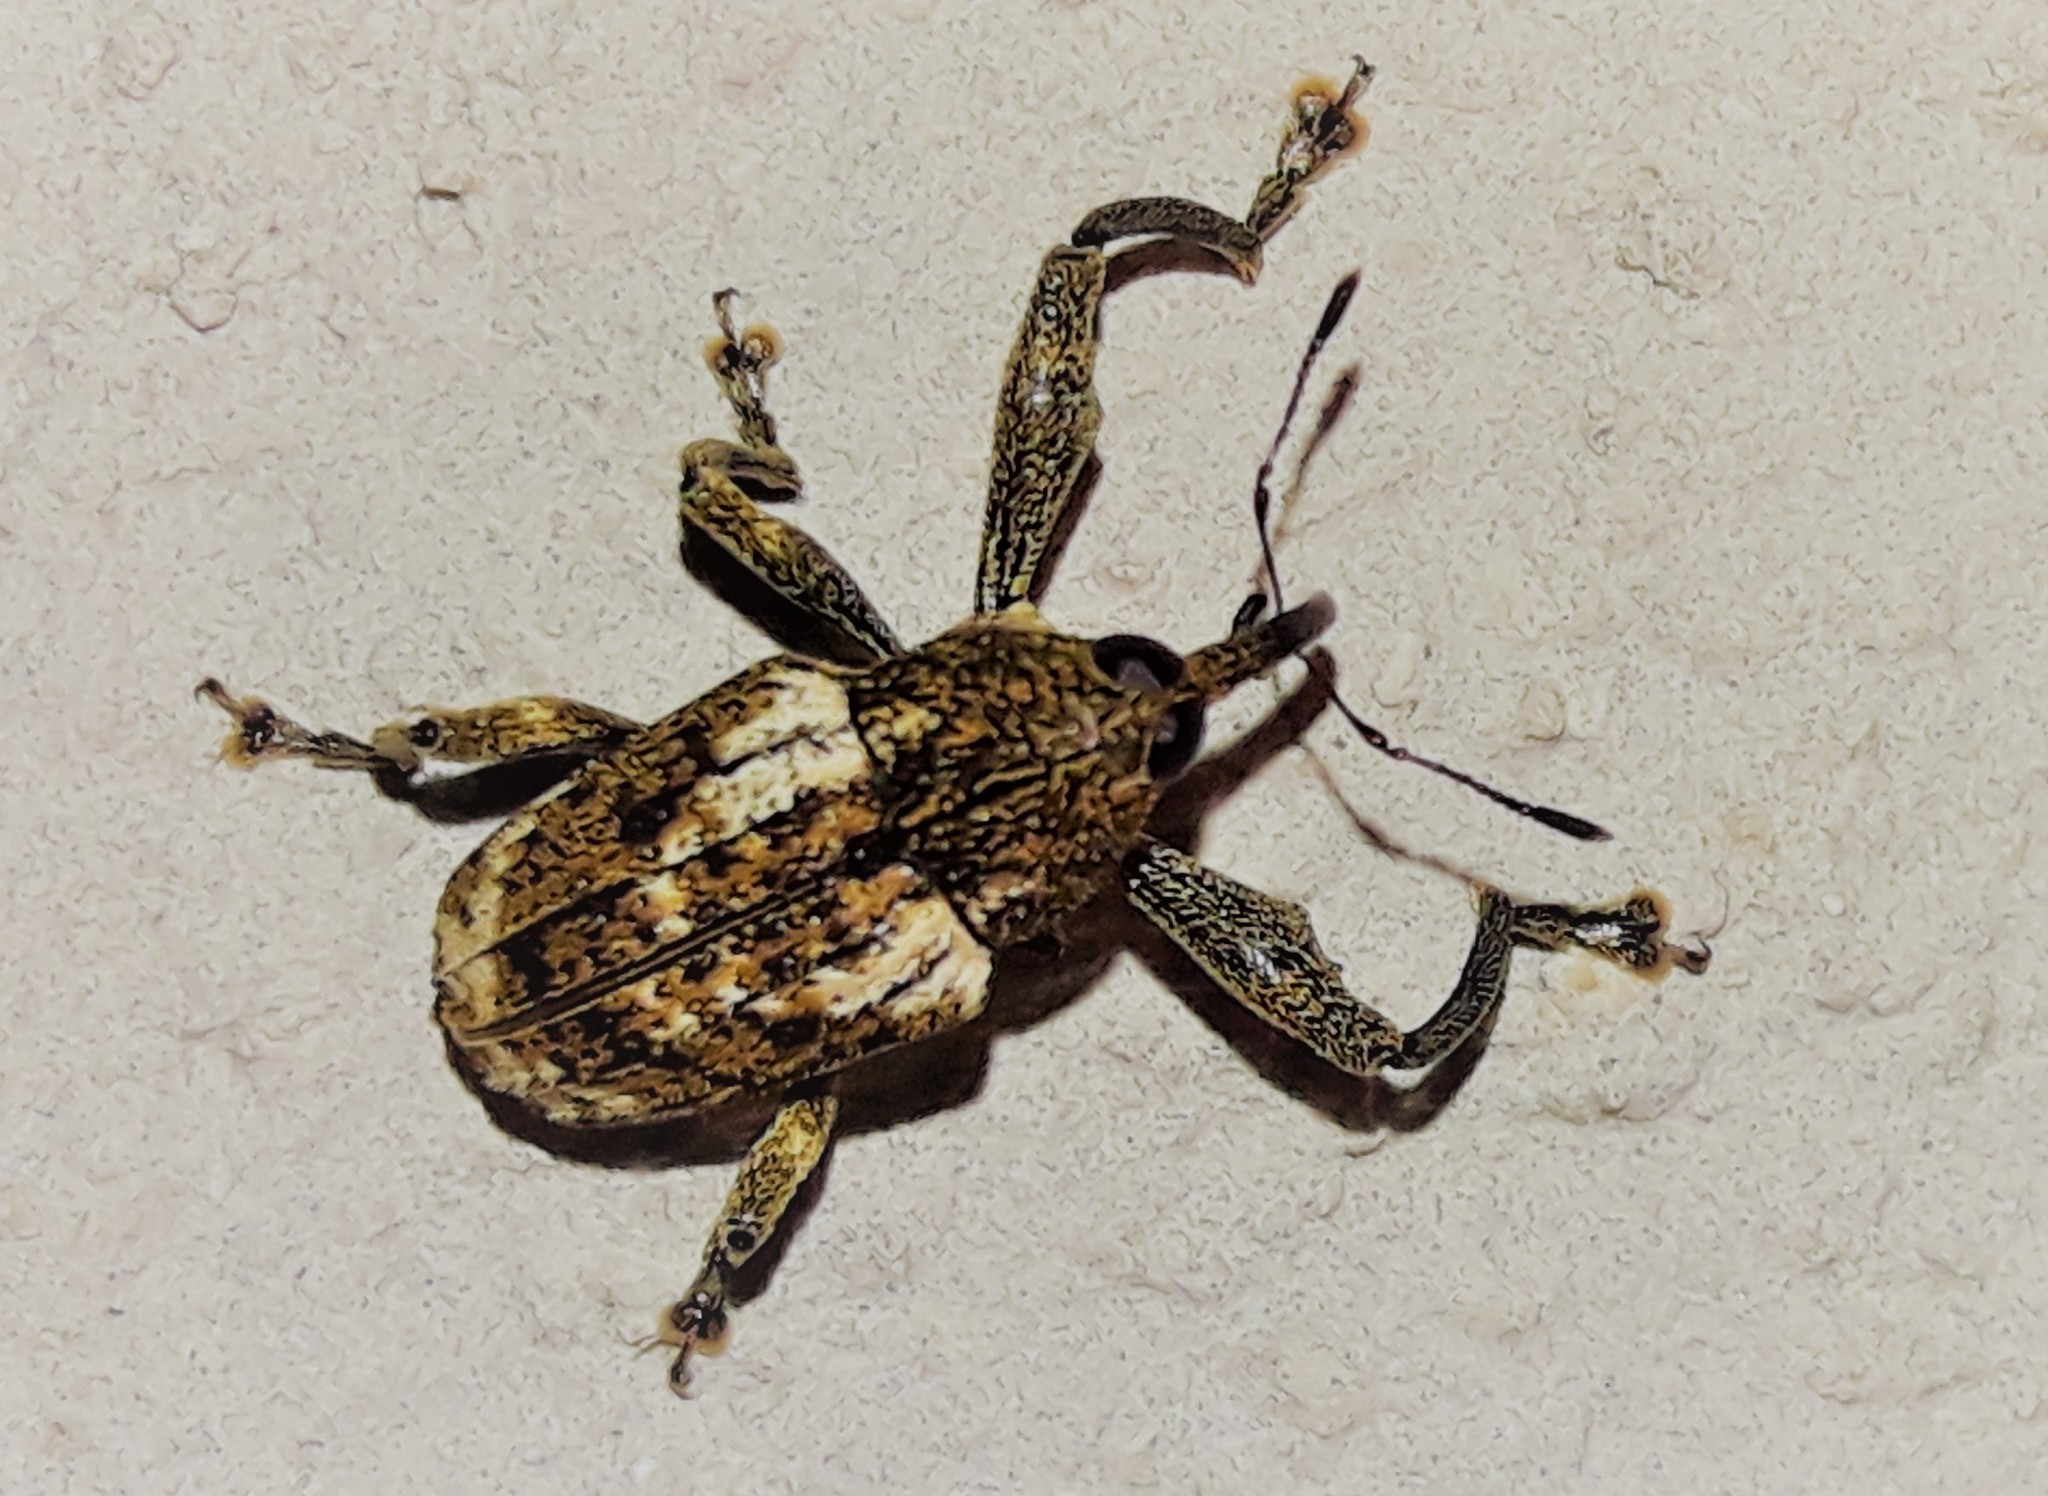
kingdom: Animalia
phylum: Arthropoda
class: Insecta
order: Coleoptera
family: Curculionidae
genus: Cryptorrhynchus
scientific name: Cryptorrhynchus cordubensis
